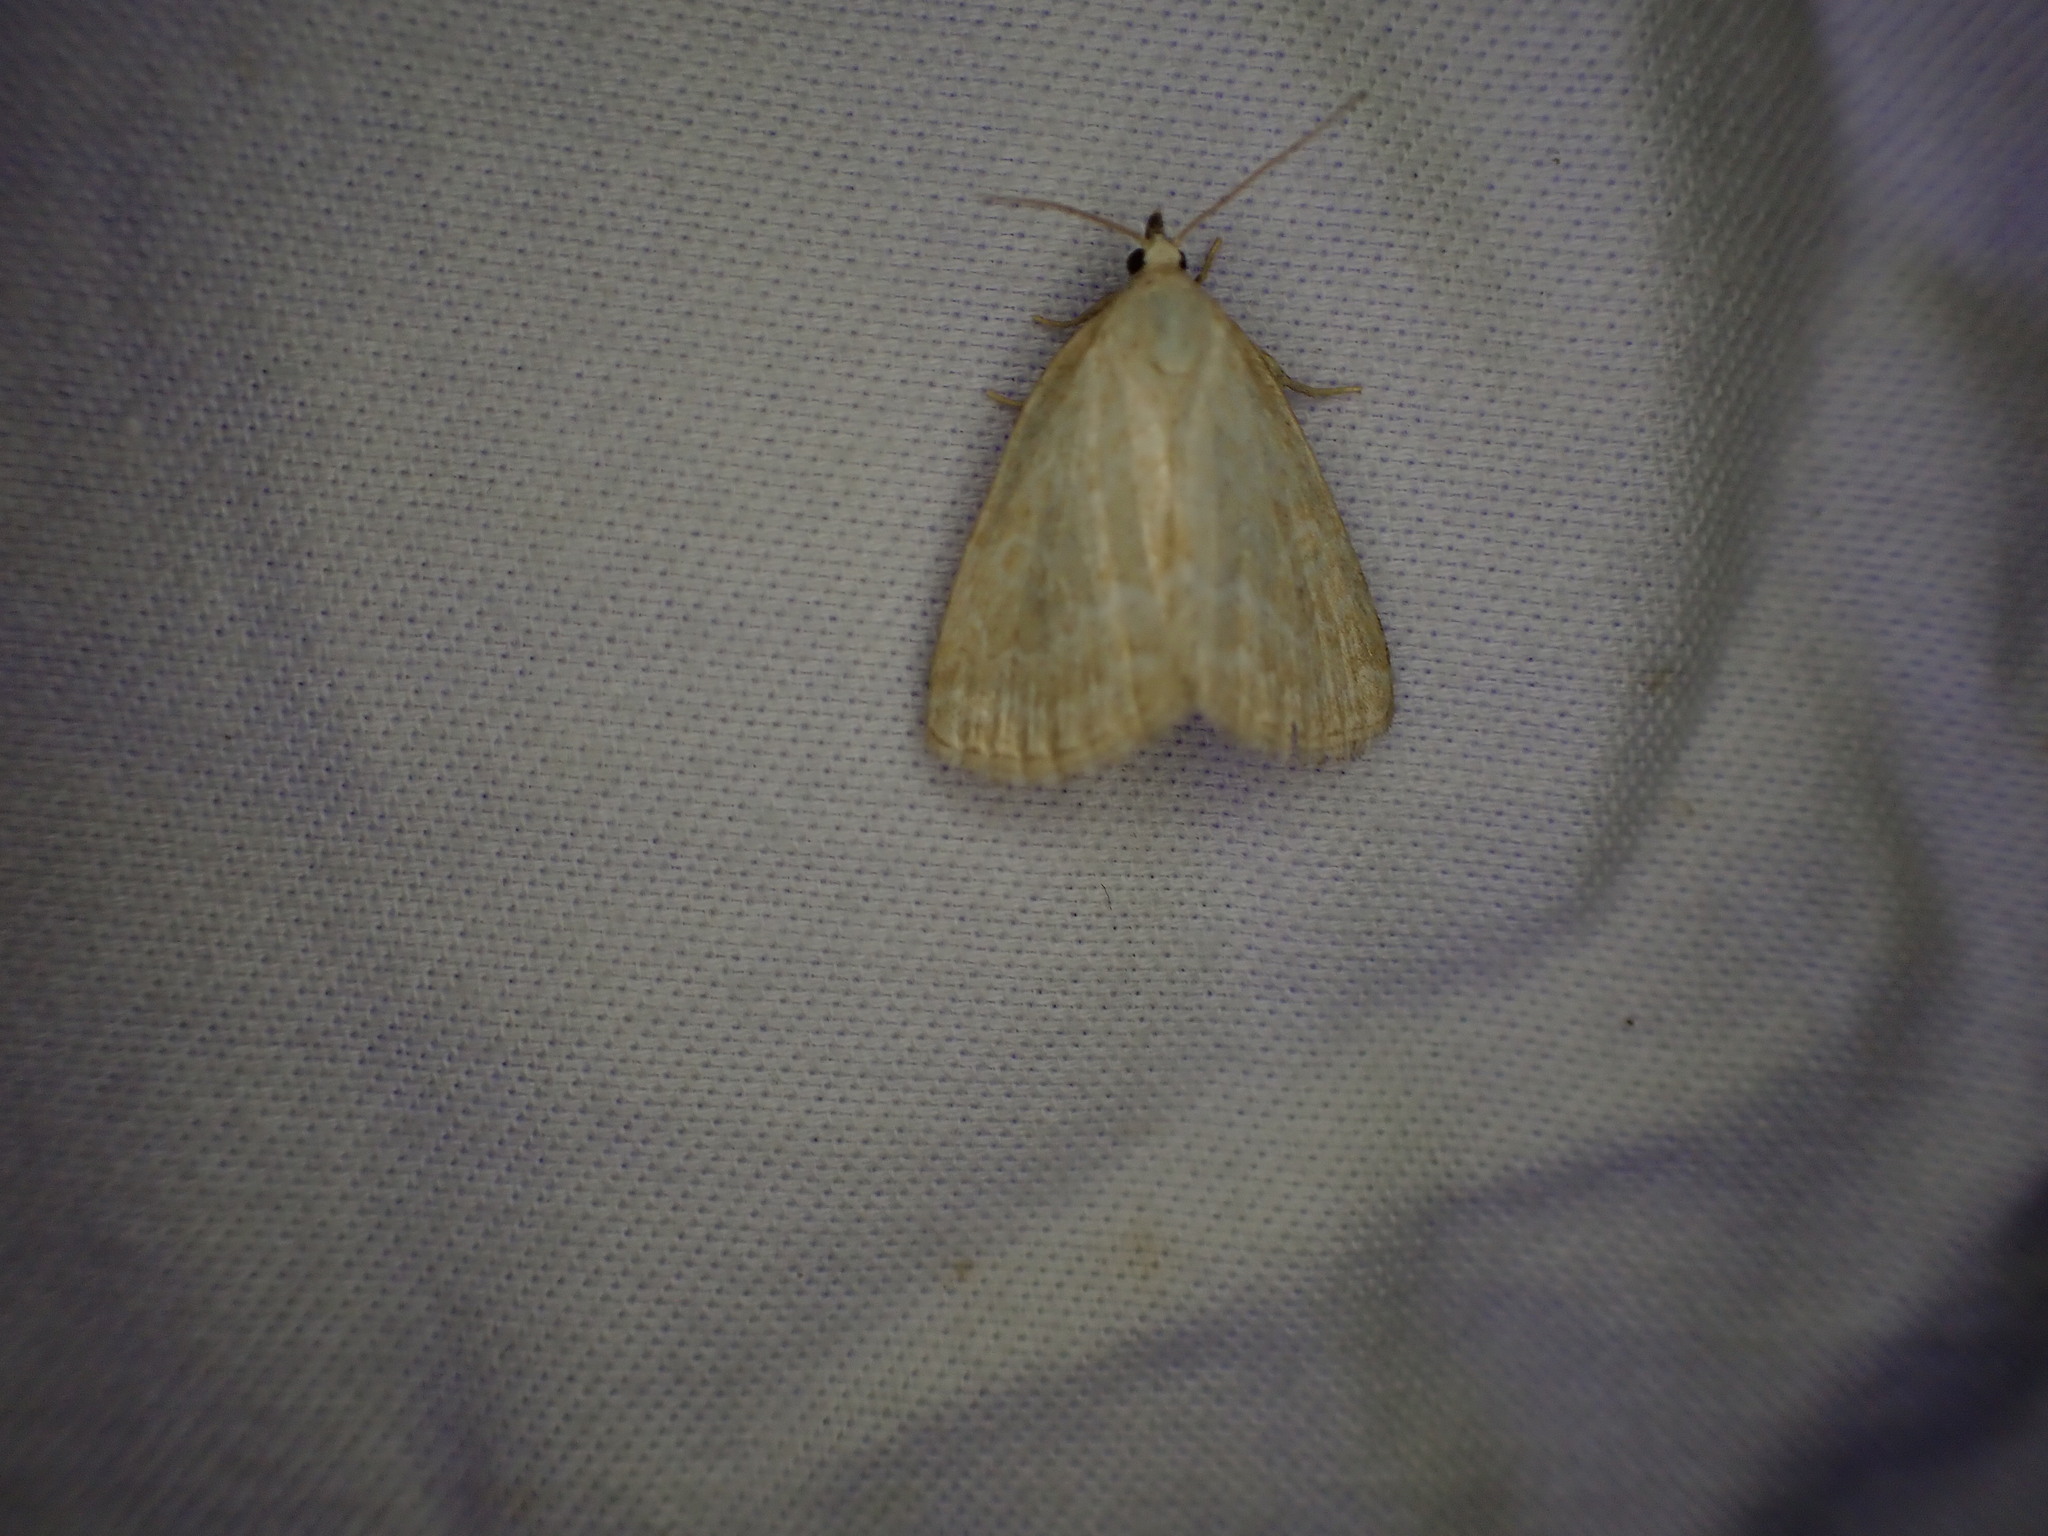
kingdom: Animalia
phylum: Arthropoda
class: Insecta
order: Lepidoptera
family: Noctuidae
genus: Protodeltote
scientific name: Protodeltote albidula
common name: Pale glyph
